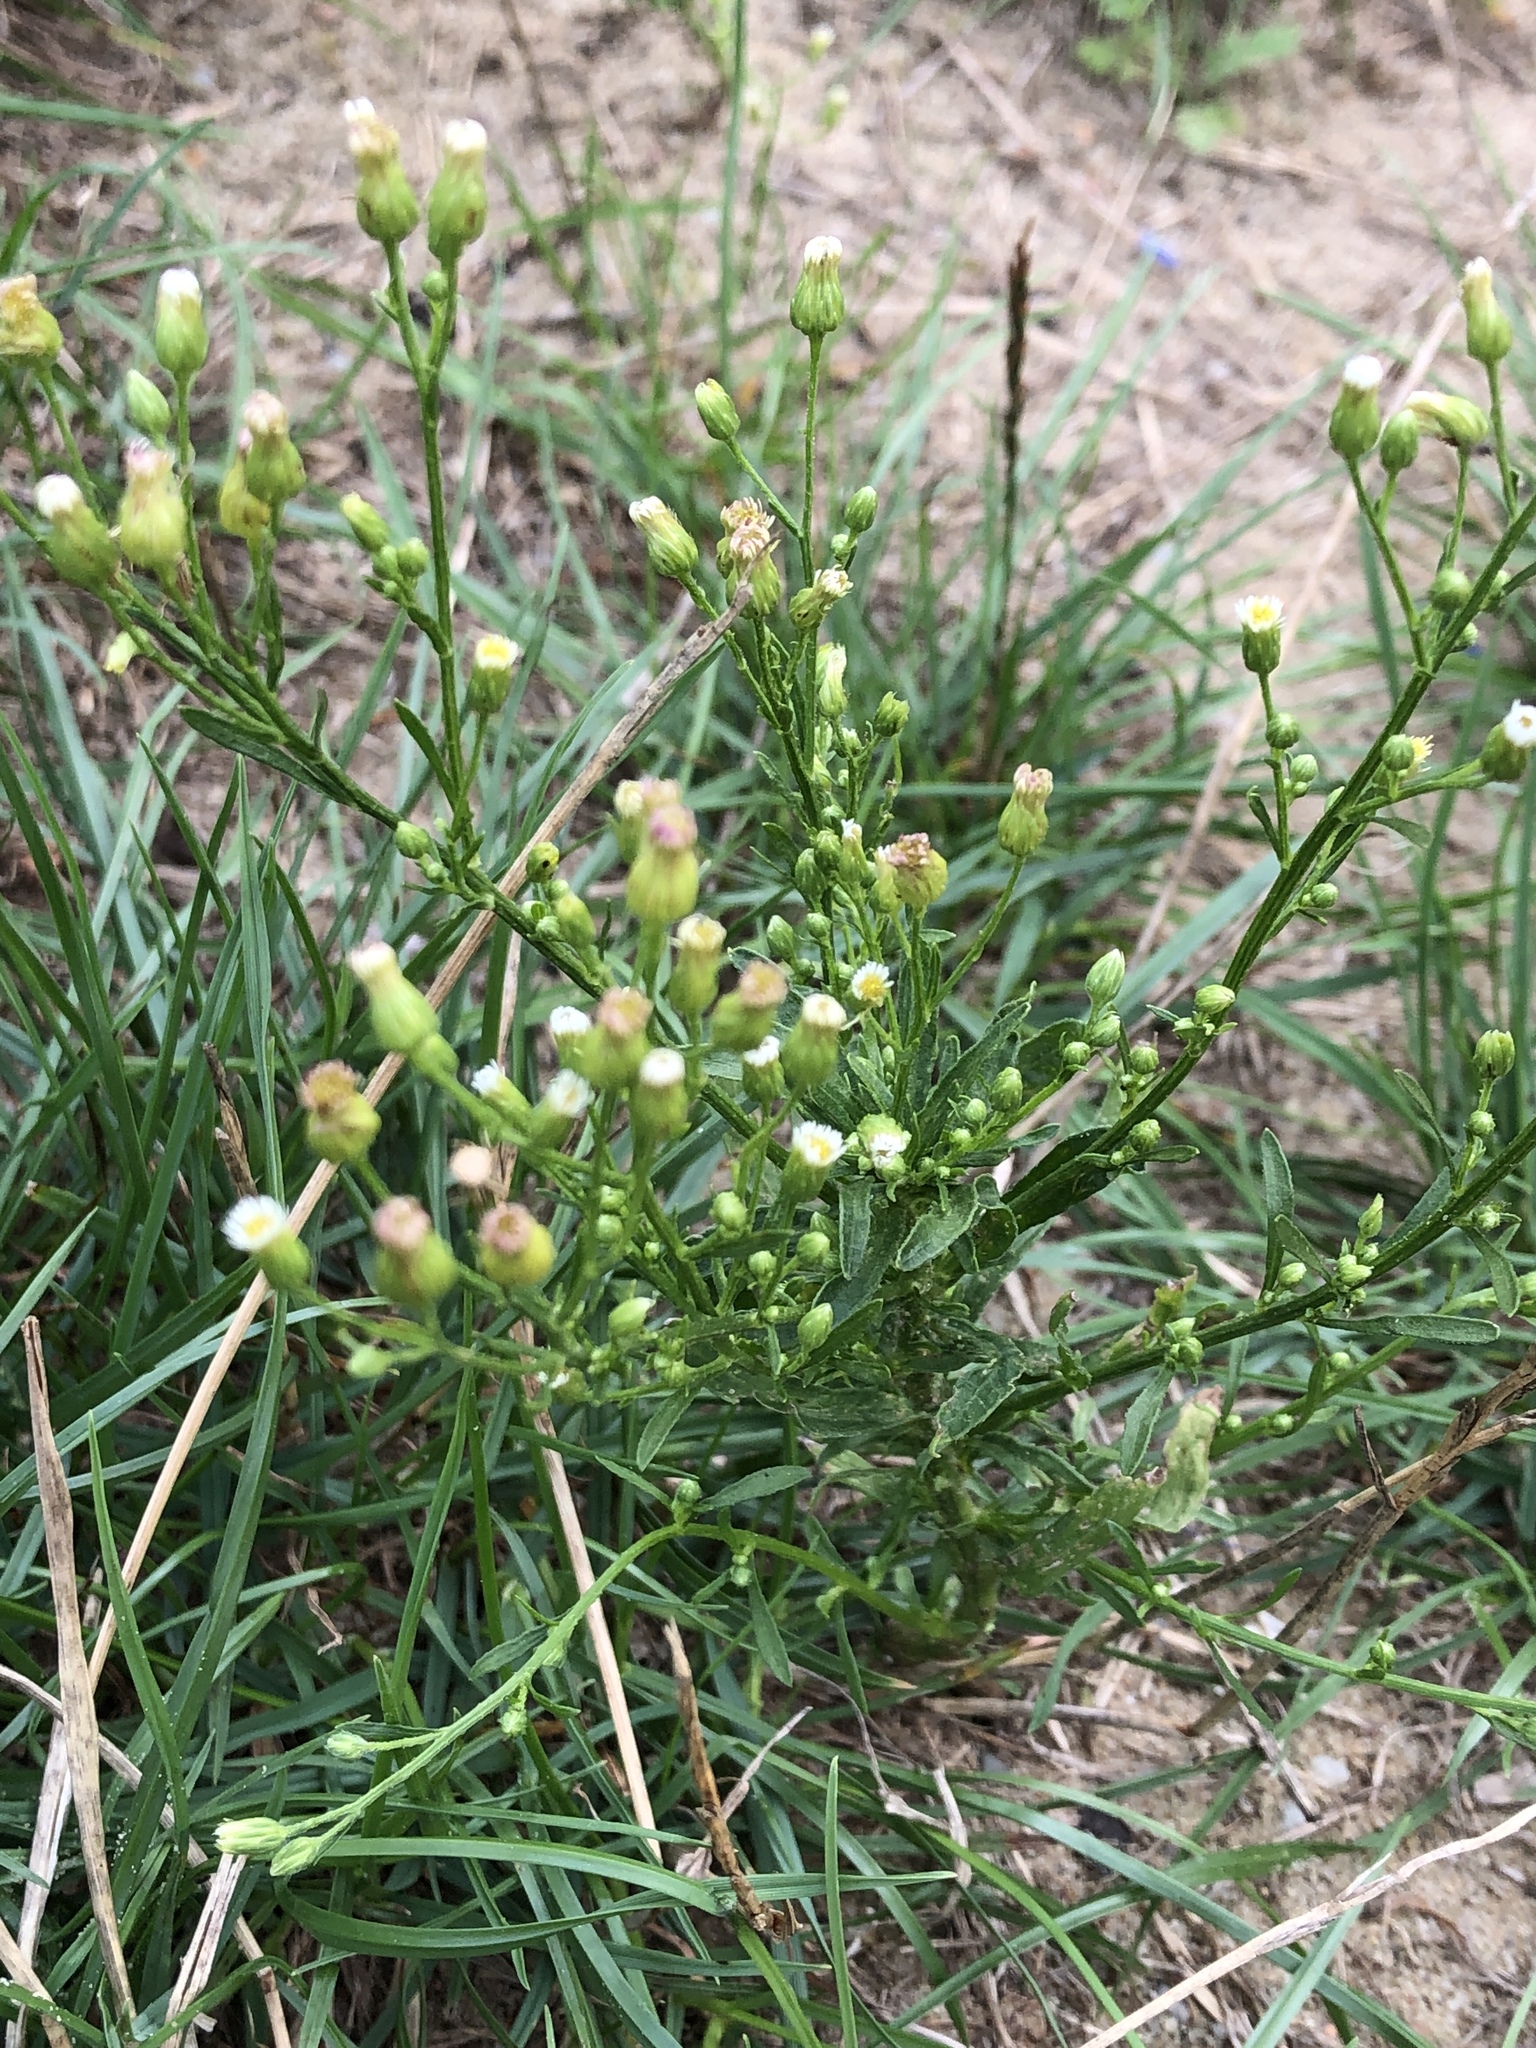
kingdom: Plantae
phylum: Tracheophyta
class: Magnoliopsida
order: Asterales
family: Asteraceae
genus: Erigeron
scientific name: Erigeron canadensis
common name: Canadian fleabane
